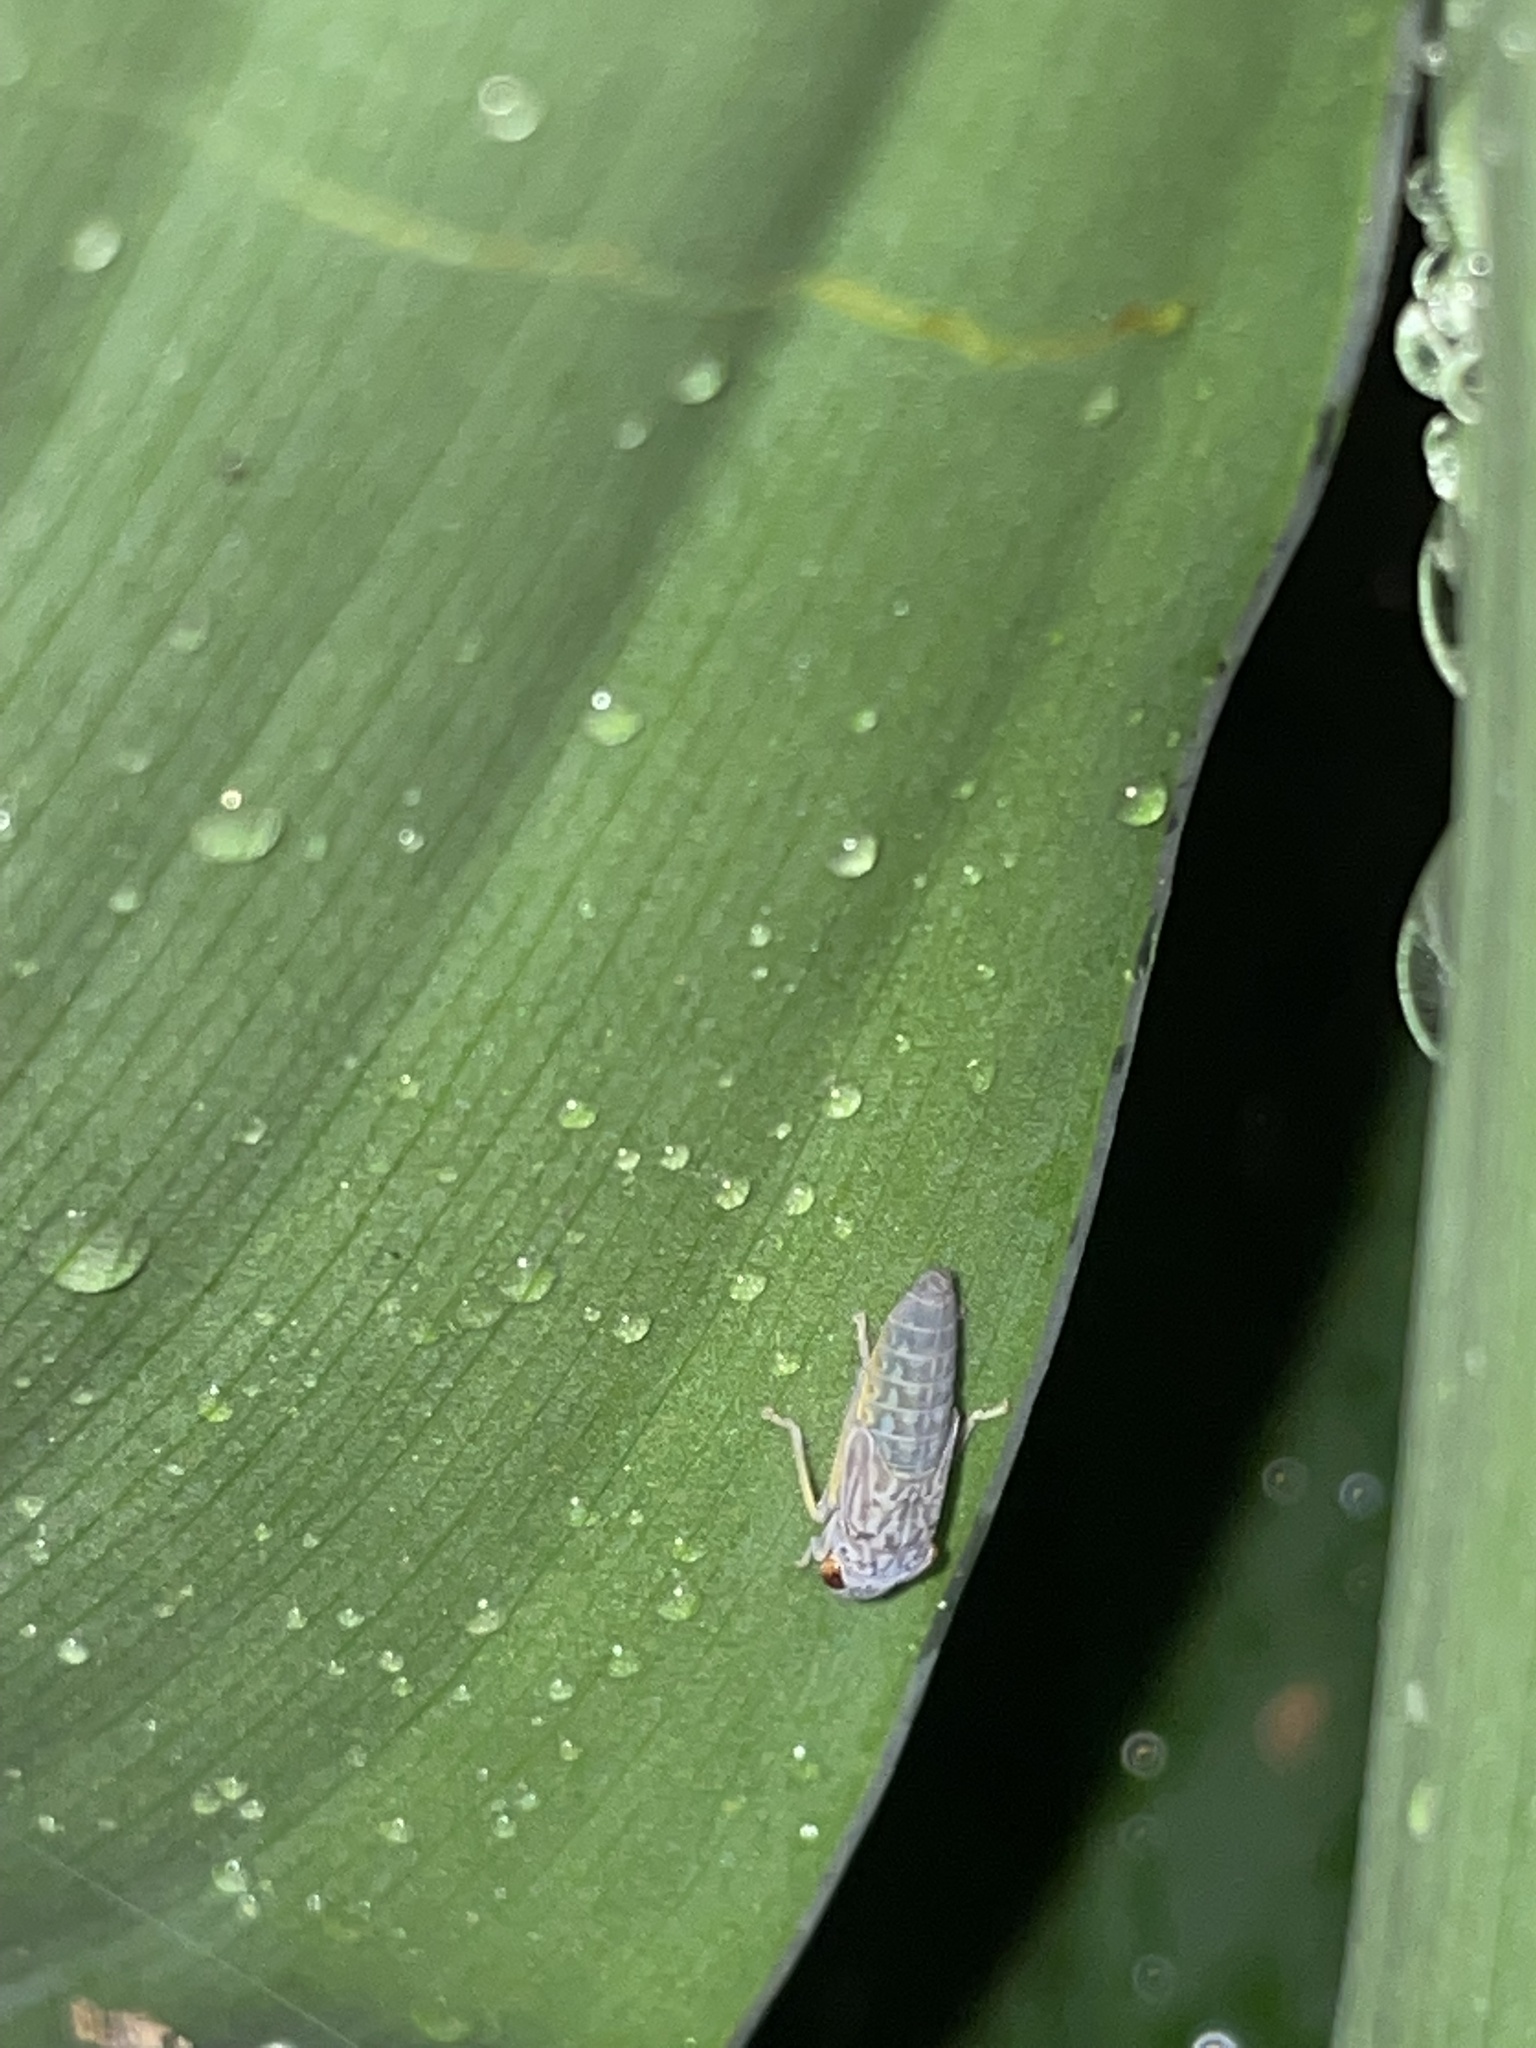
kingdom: Animalia
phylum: Arthropoda
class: Insecta
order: Hemiptera
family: Cicadellidae
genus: Oncometopia
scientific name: Oncometopia orbona
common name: Broad-headed sharpshooter
